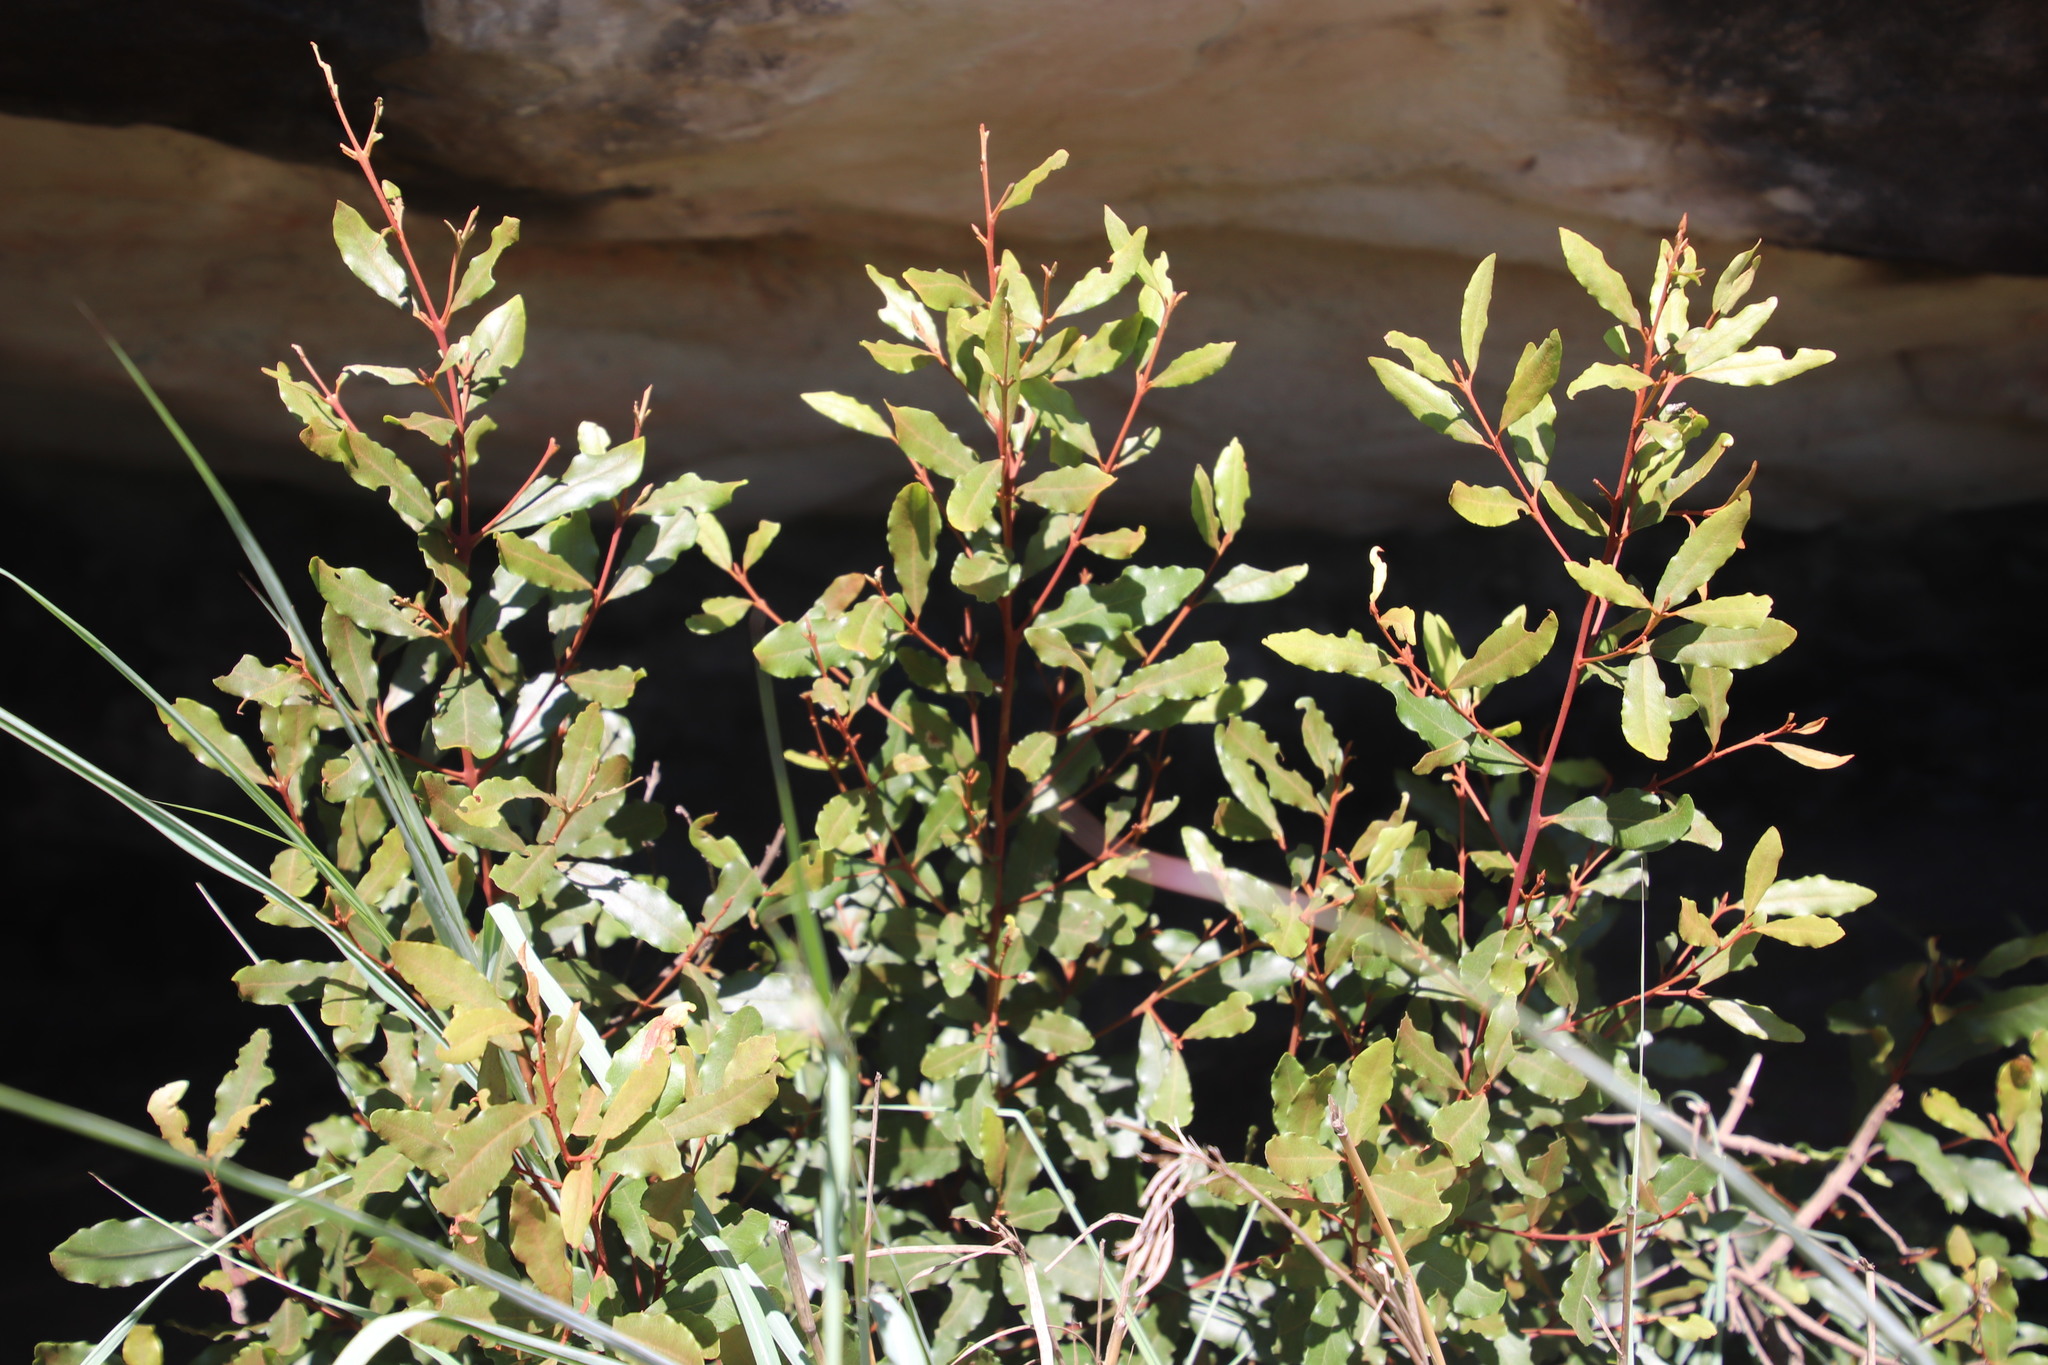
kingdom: Plantae
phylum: Tracheophyta
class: Magnoliopsida
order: Ericales
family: Ebenaceae
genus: Euclea
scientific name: Euclea crispa
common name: Blue guarri
